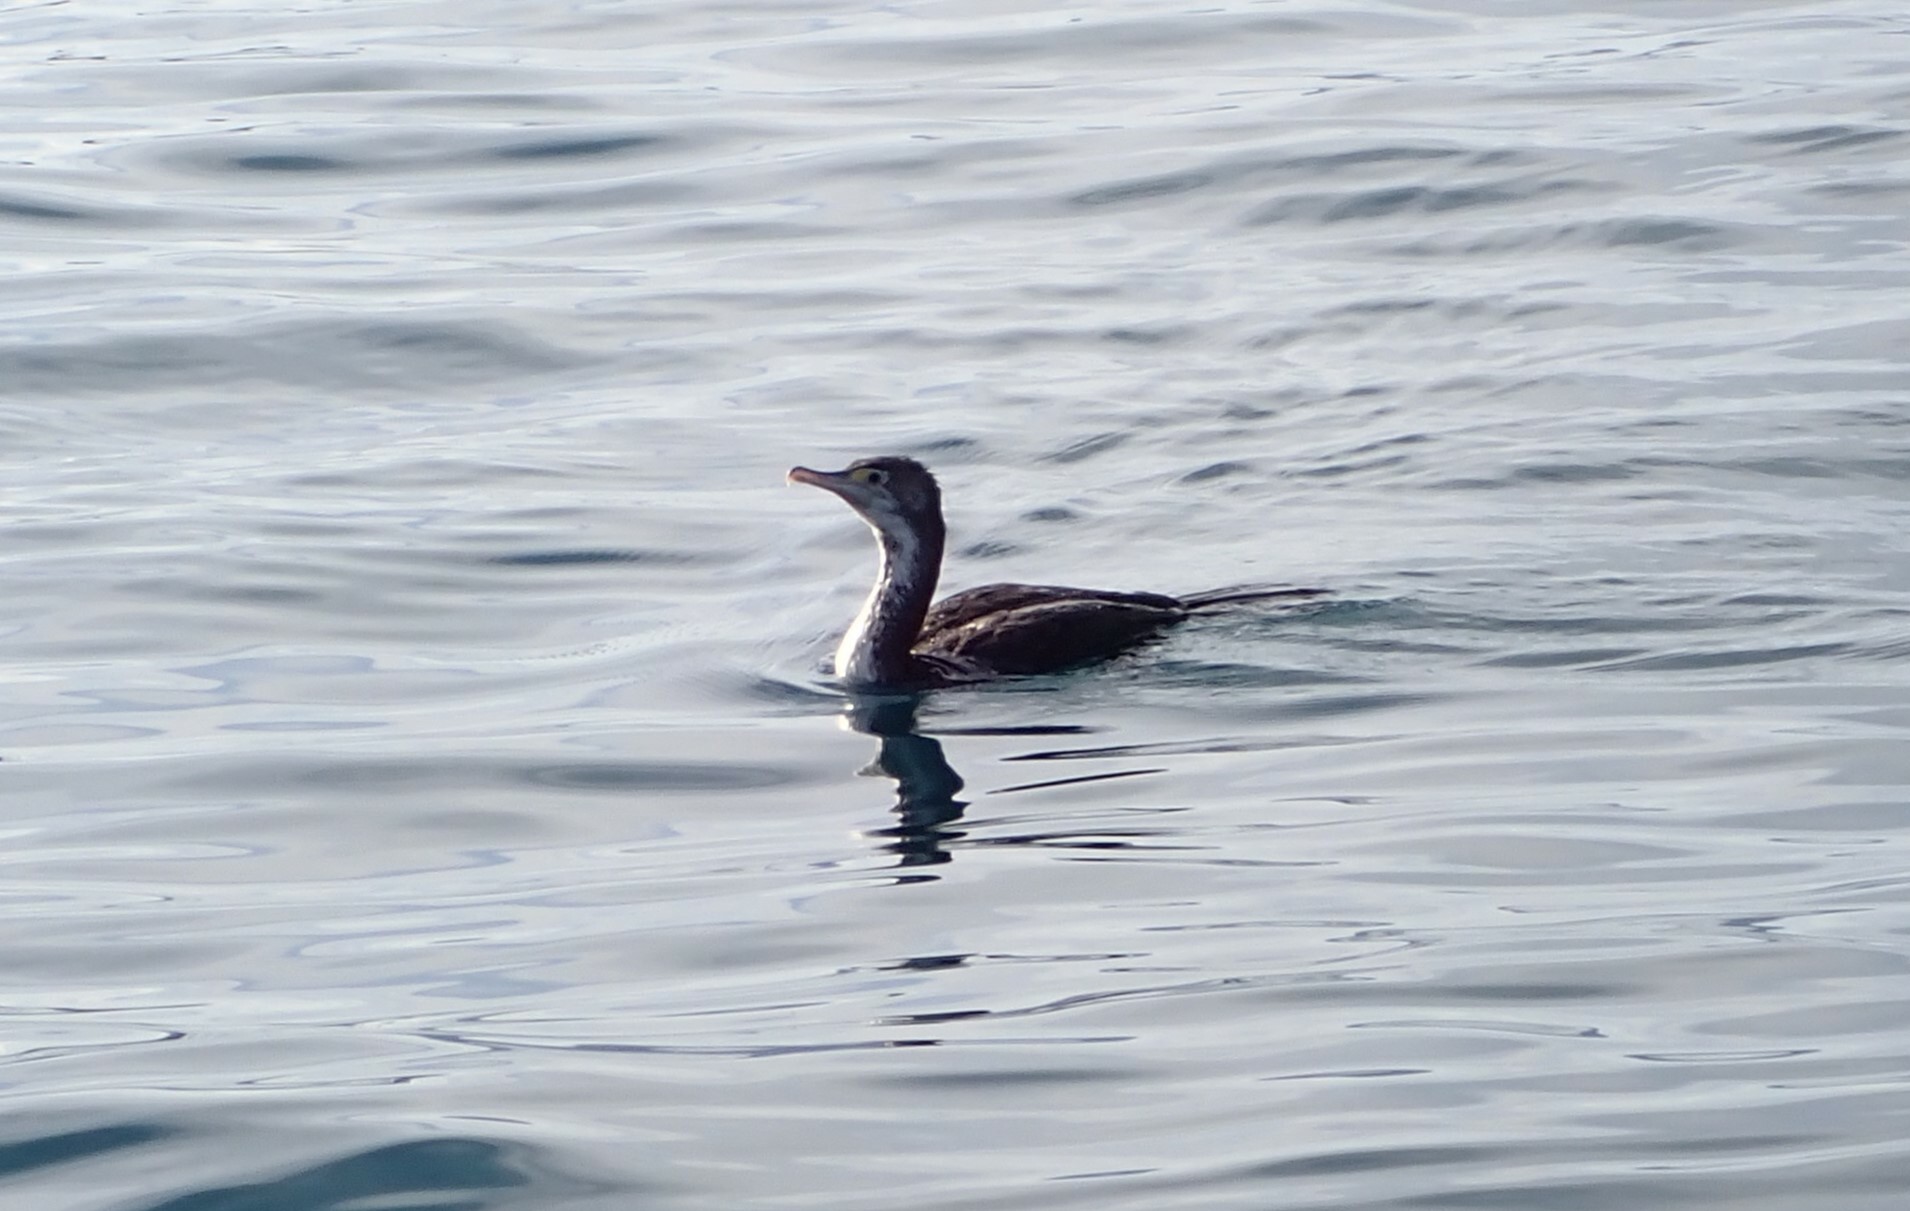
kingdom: Animalia
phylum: Chordata
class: Aves
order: Suliformes
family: Phalacrocoracidae
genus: Phalacrocorax
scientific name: Phalacrocorax varius
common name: Pied cormorant
